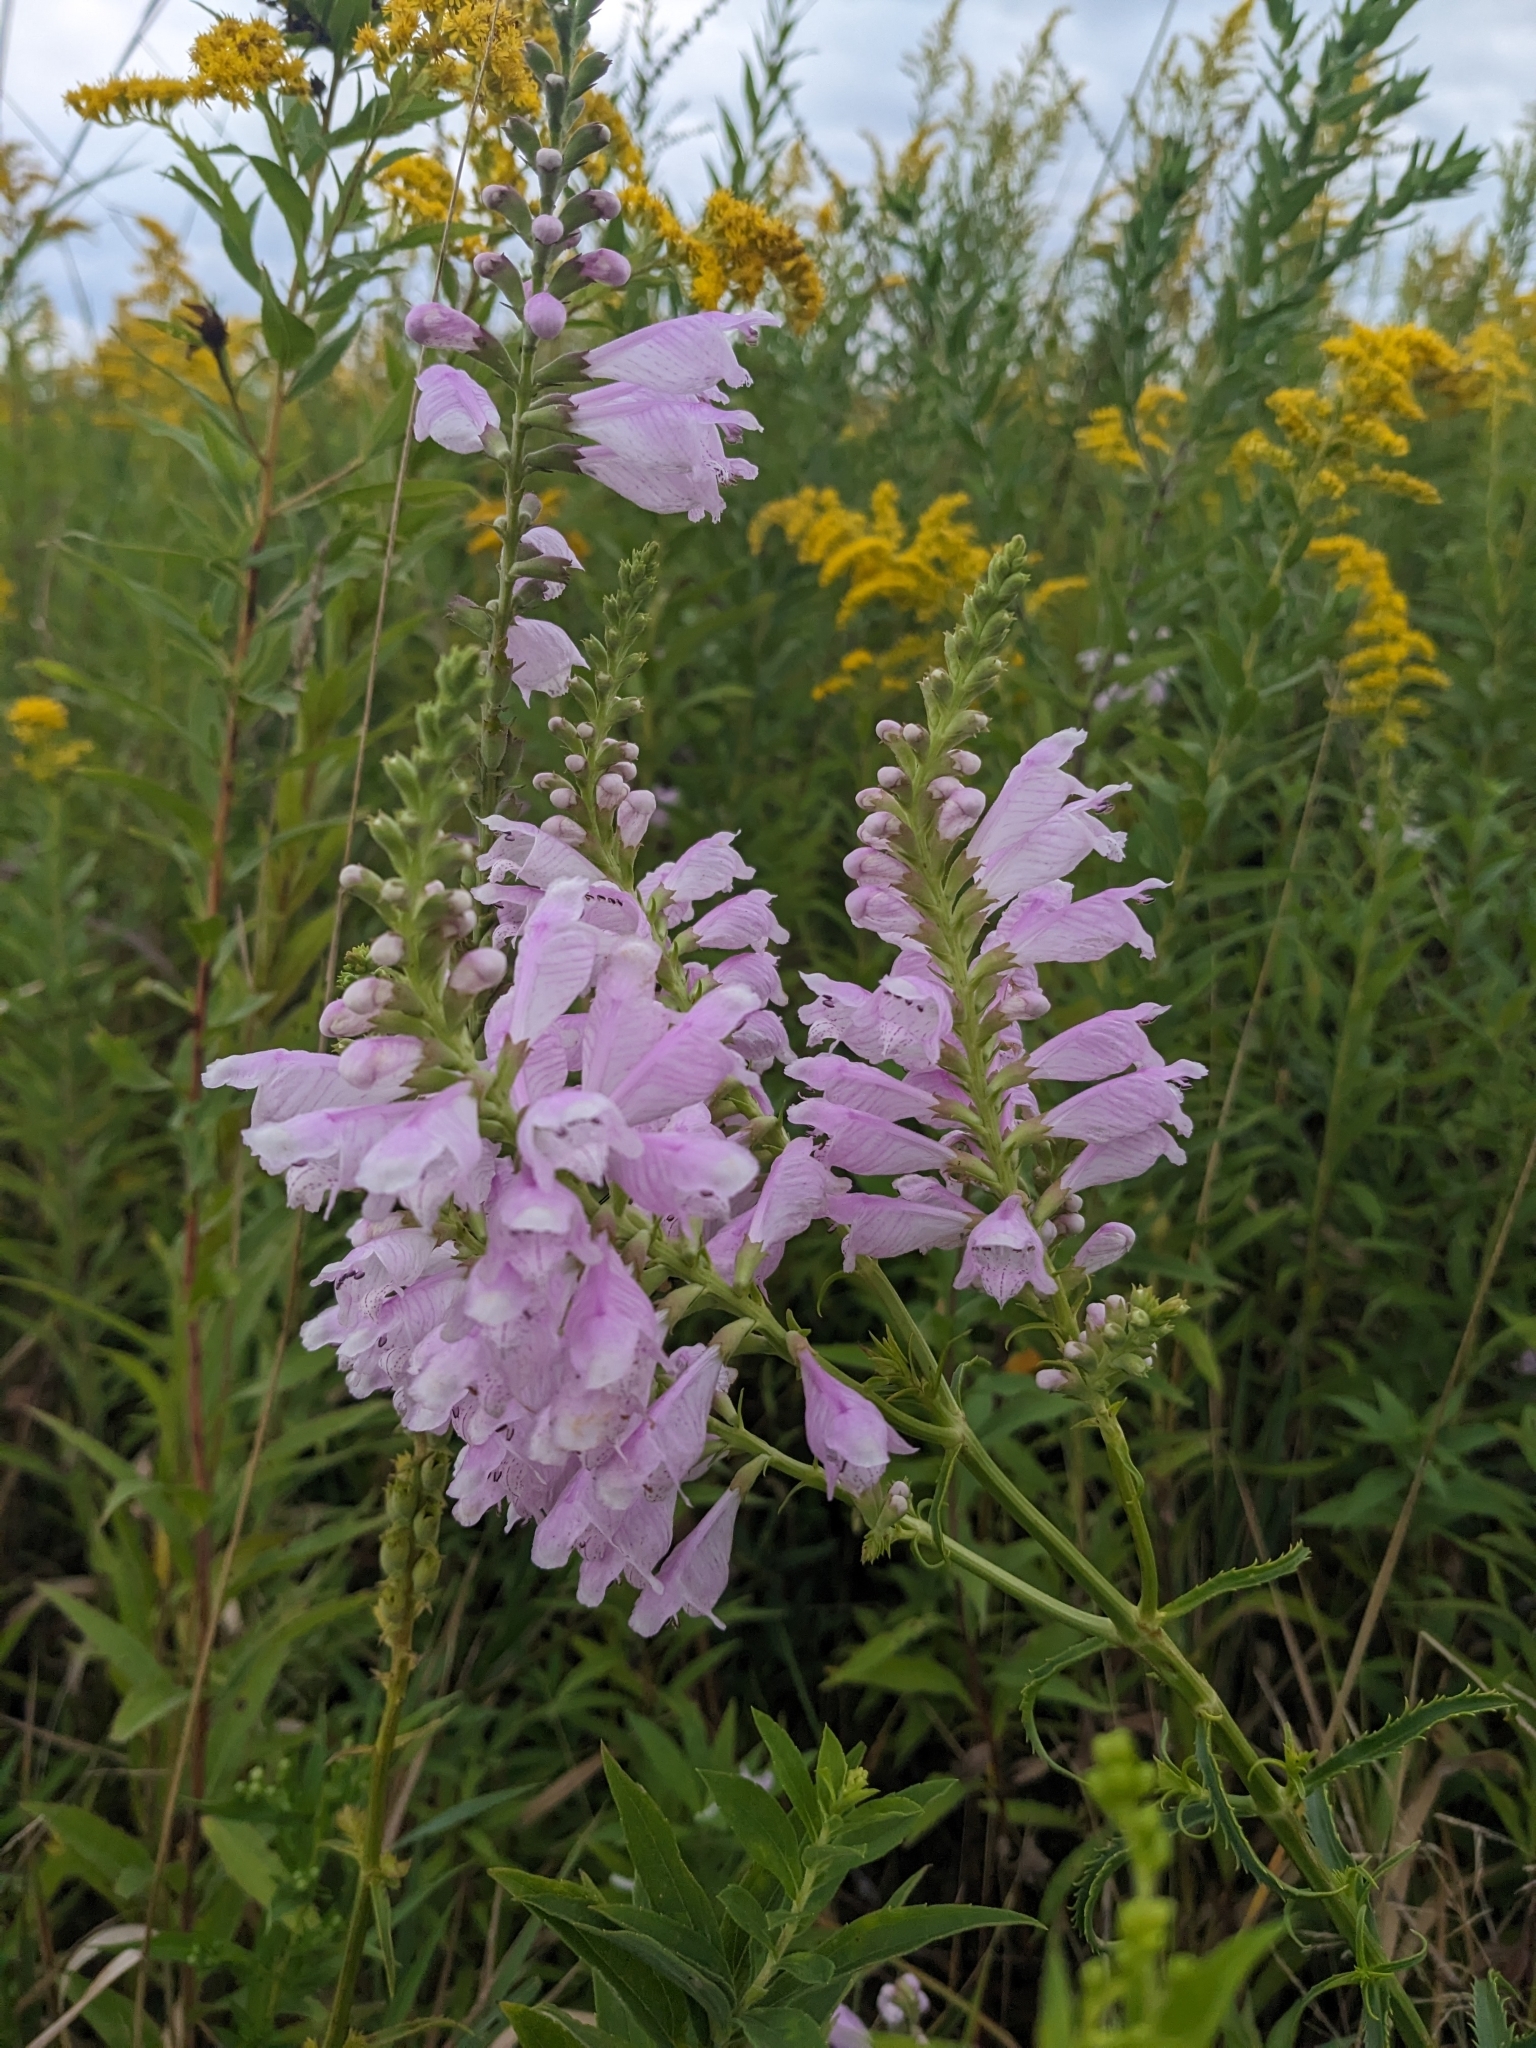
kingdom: Plantae
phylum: Tracheophyta
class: Magnoliopsida
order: Lamiales
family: Lamiaceae
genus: Physostegia
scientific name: Physostegia virginiana
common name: Obedient-plant
